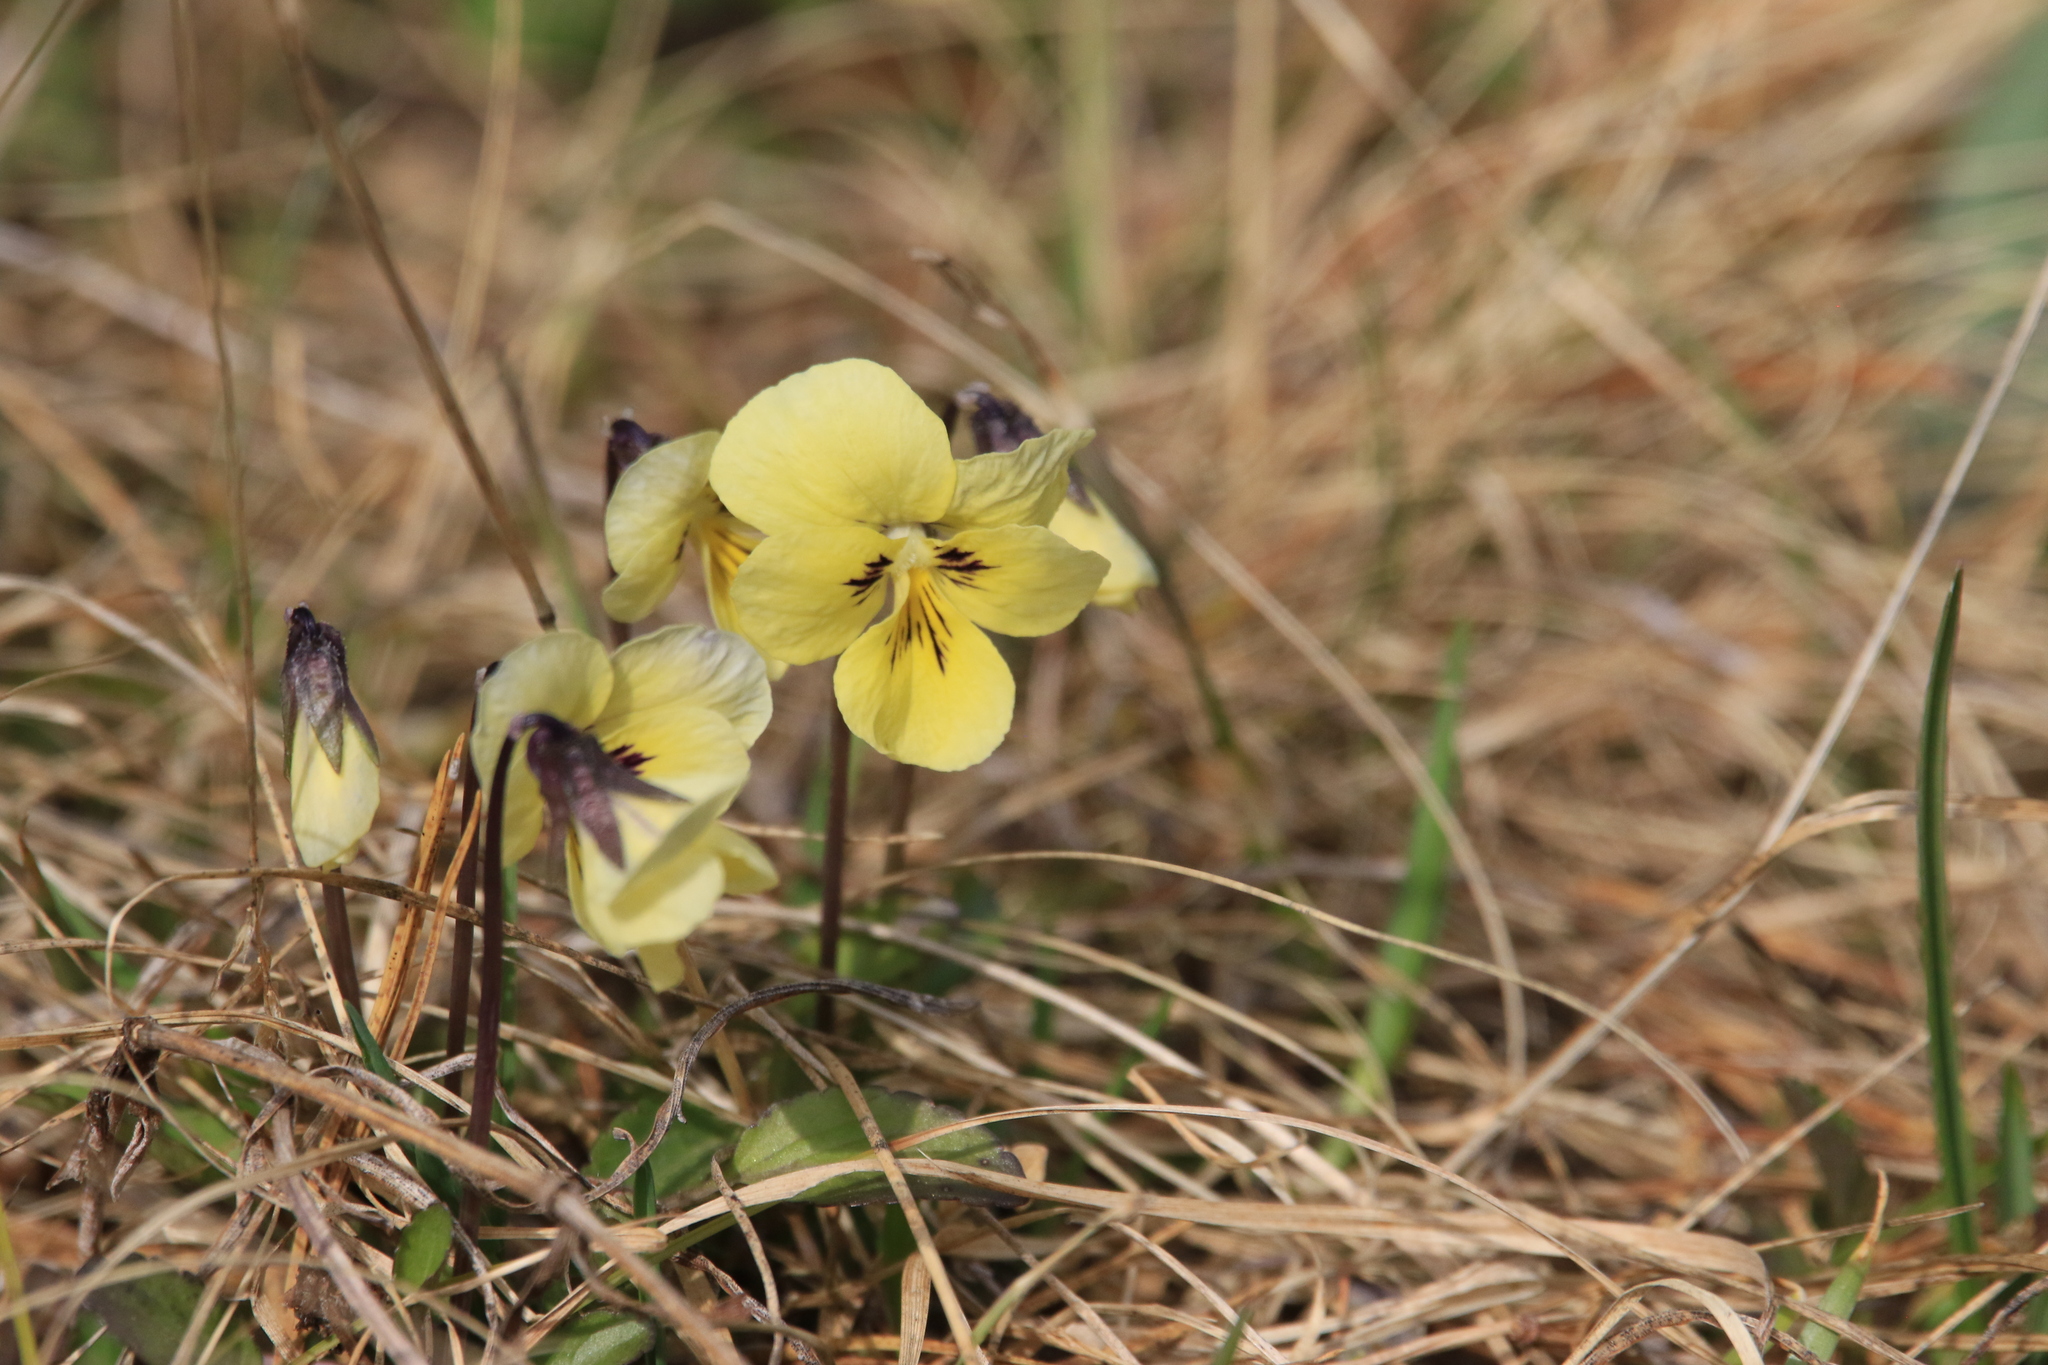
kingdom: Plantae
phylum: Tracheophyta
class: Magnoliopsida
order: Malpighiales
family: Violaceae
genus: Viola
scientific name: Viola altaica
